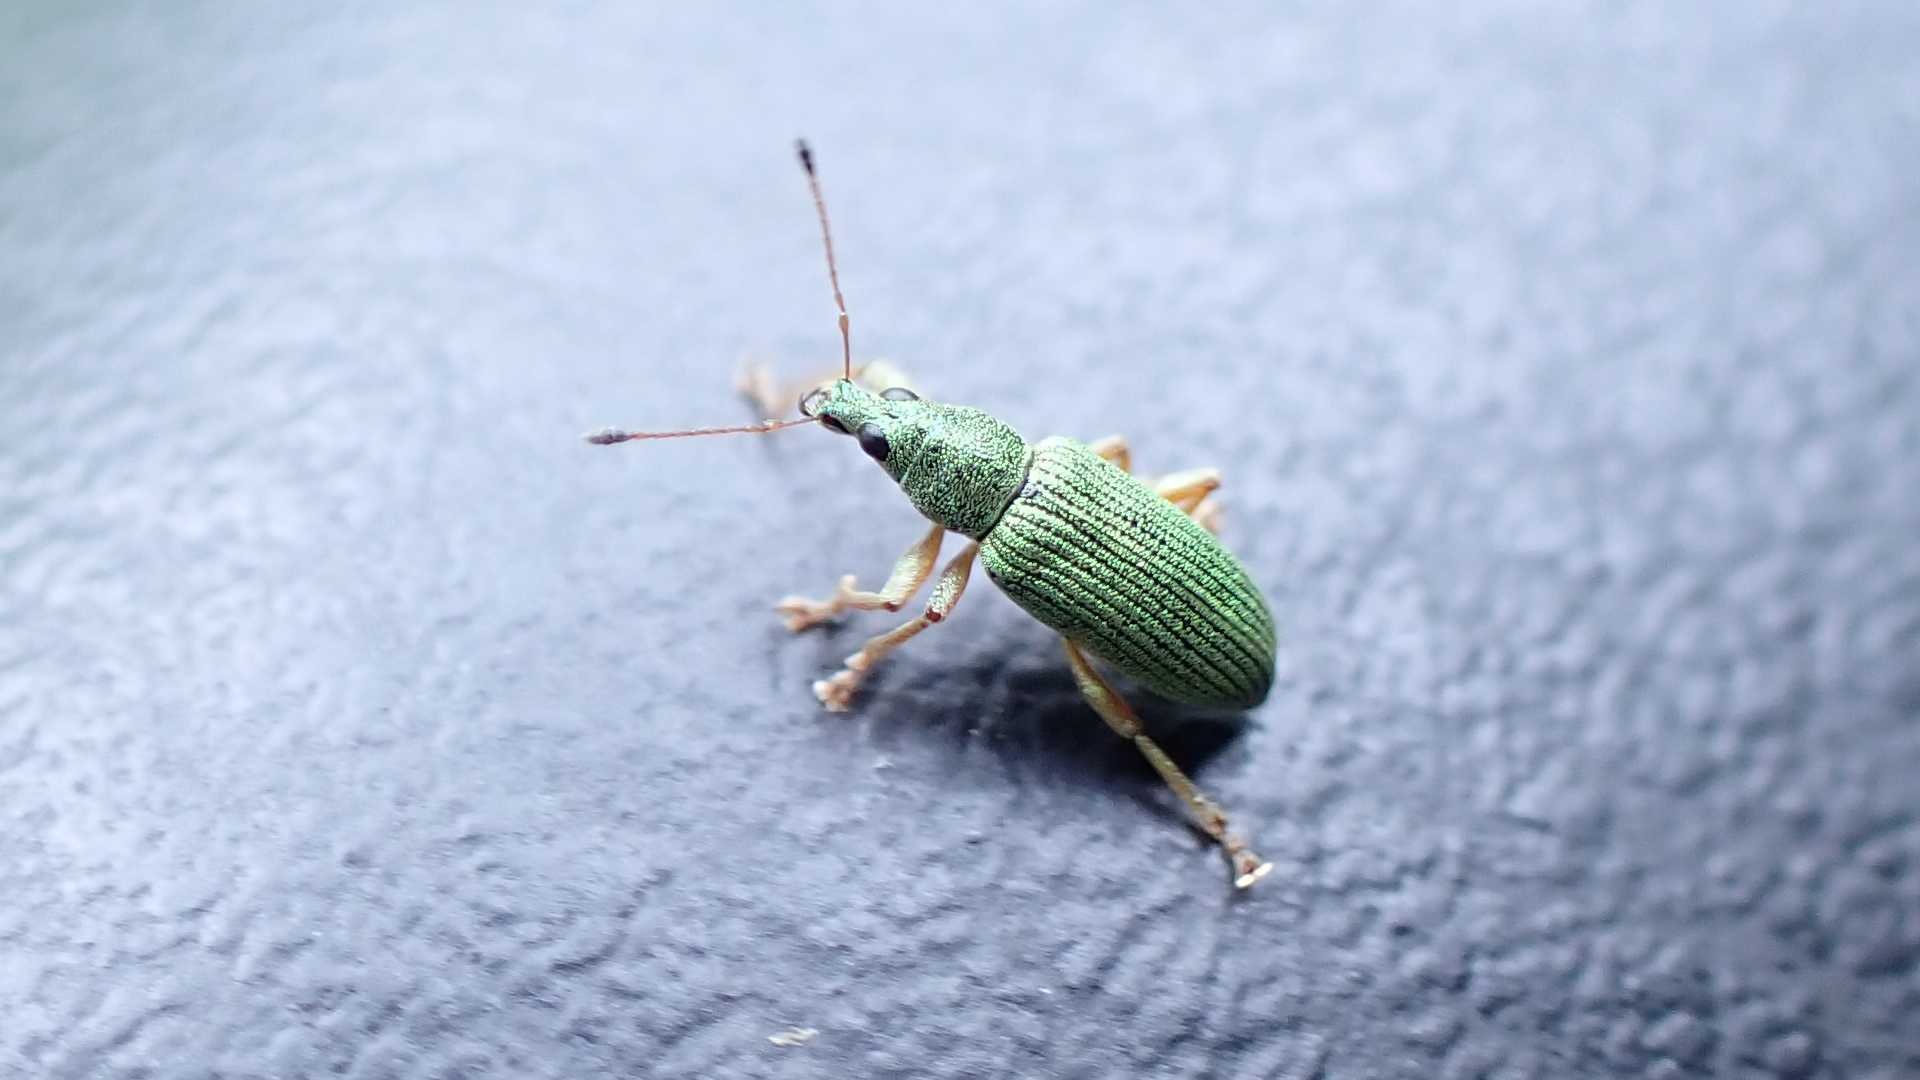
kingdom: Animalia
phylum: Arthropoda
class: Insecta
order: Coleoptera
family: Curculionidae
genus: Polydrusus
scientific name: Polydrusus formosus
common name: Weevil
